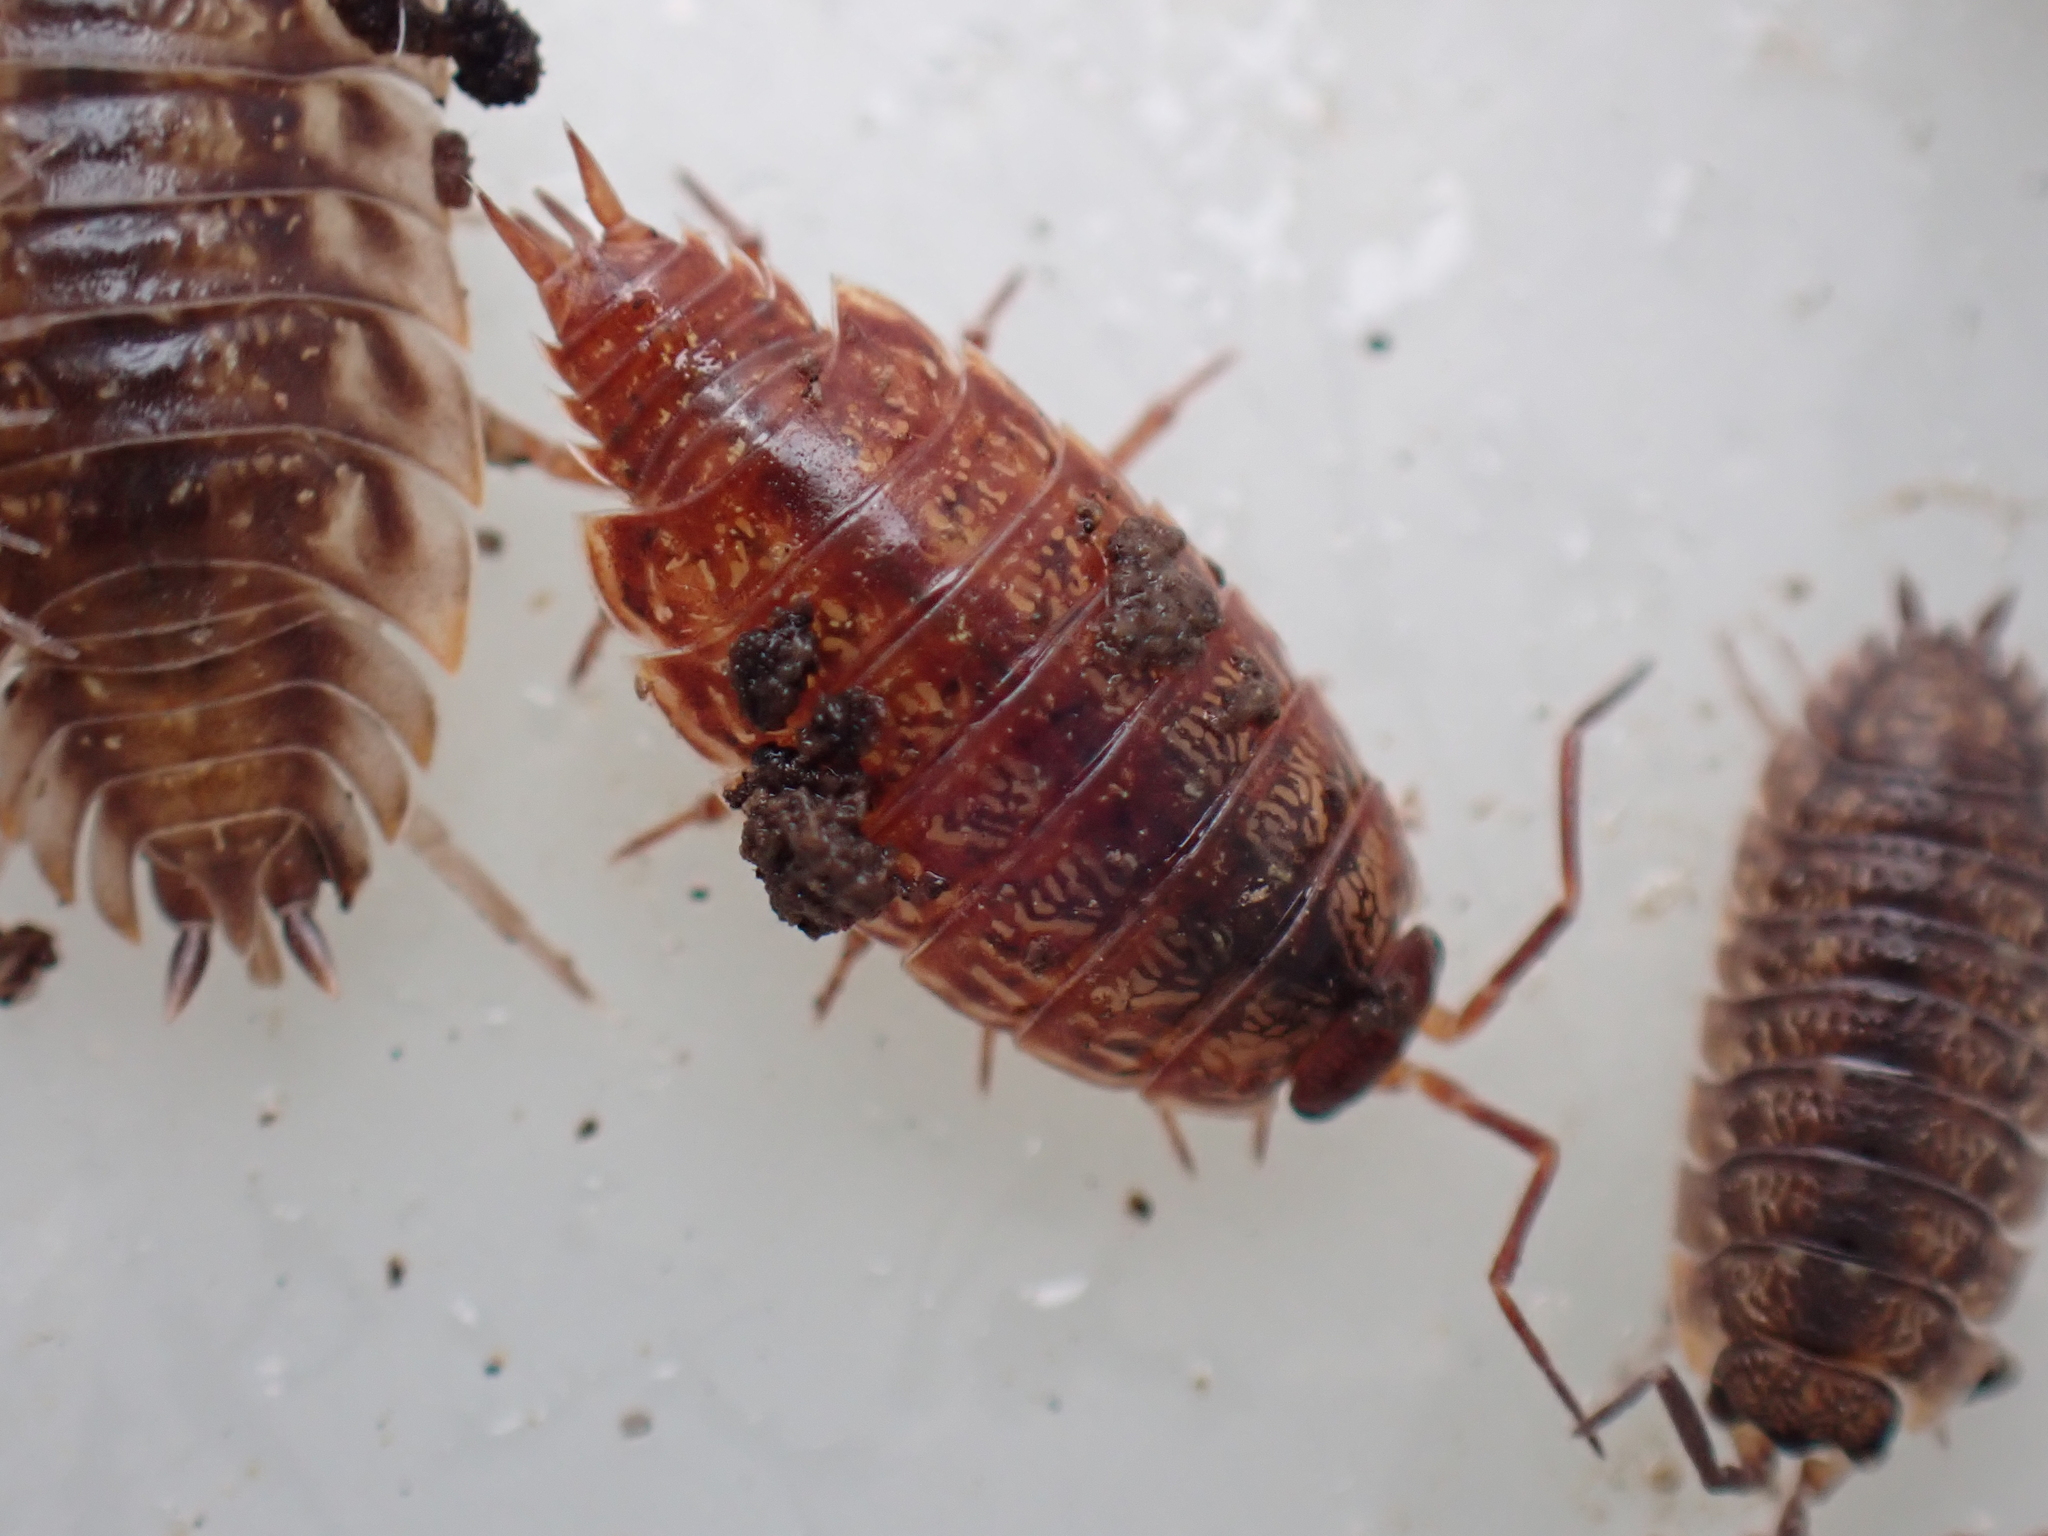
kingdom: Animalia
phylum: Arthropoda
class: Malacostraca
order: Isopoda
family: Philosciidae
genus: Philoscia
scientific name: Philoscia muscorum
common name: Common striped woodlouse
